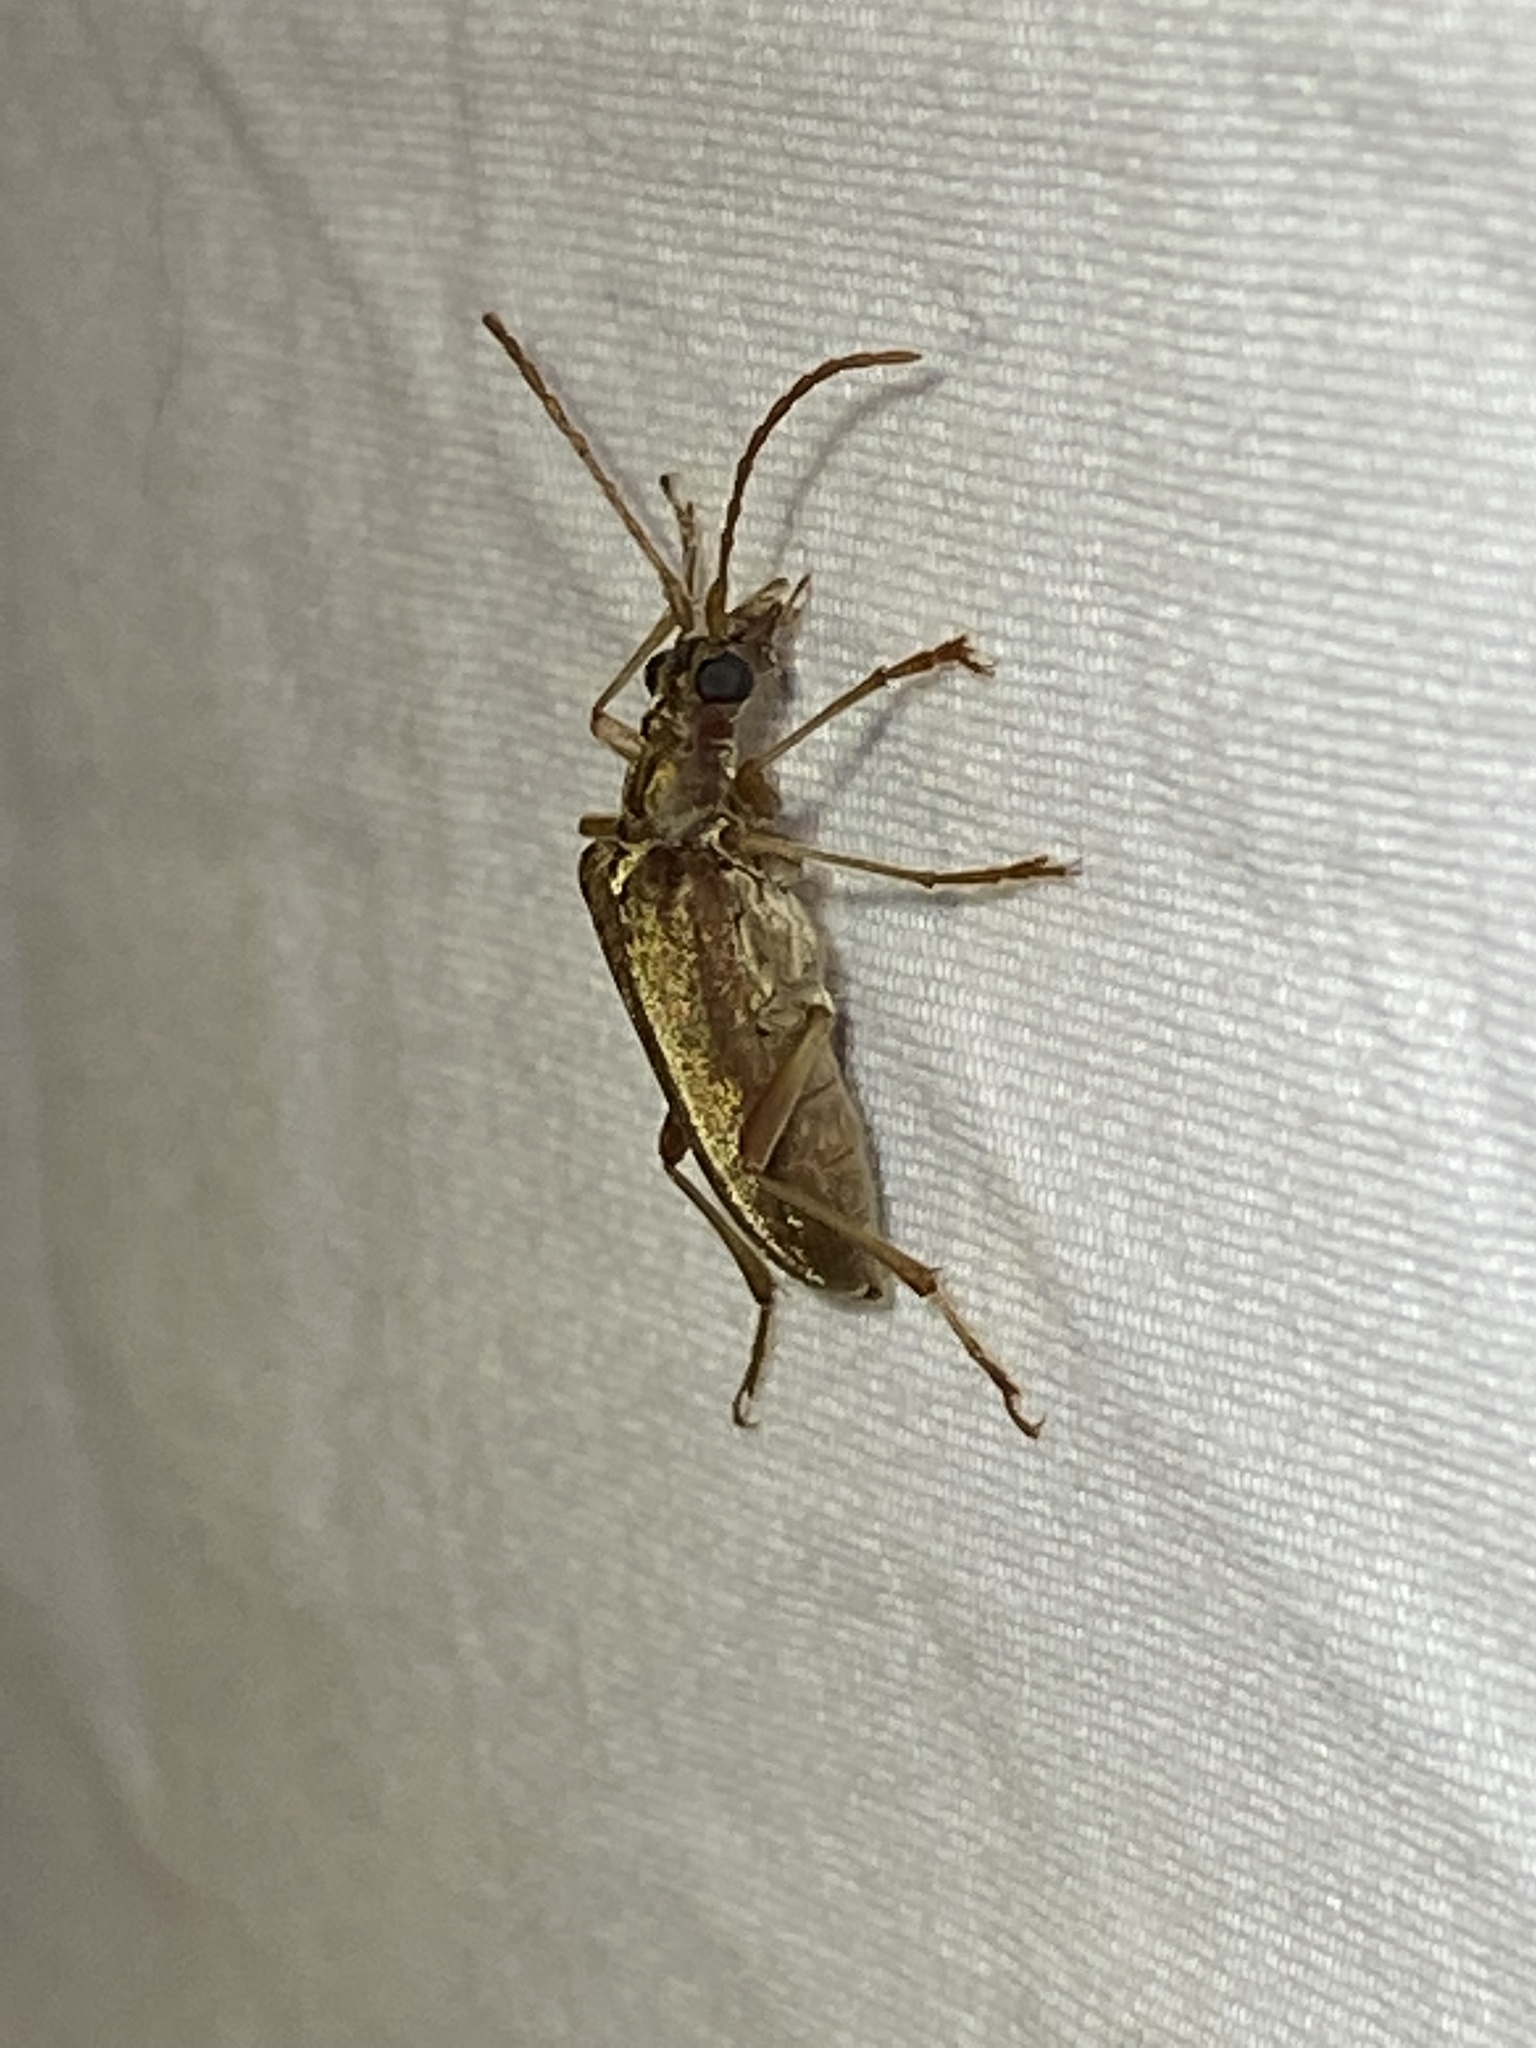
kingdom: Animalia
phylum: Arthropoda
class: Insecta
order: Coleoptera
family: Cerambycidae
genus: Stenocorus
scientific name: Stenocorus cinnamopterus
